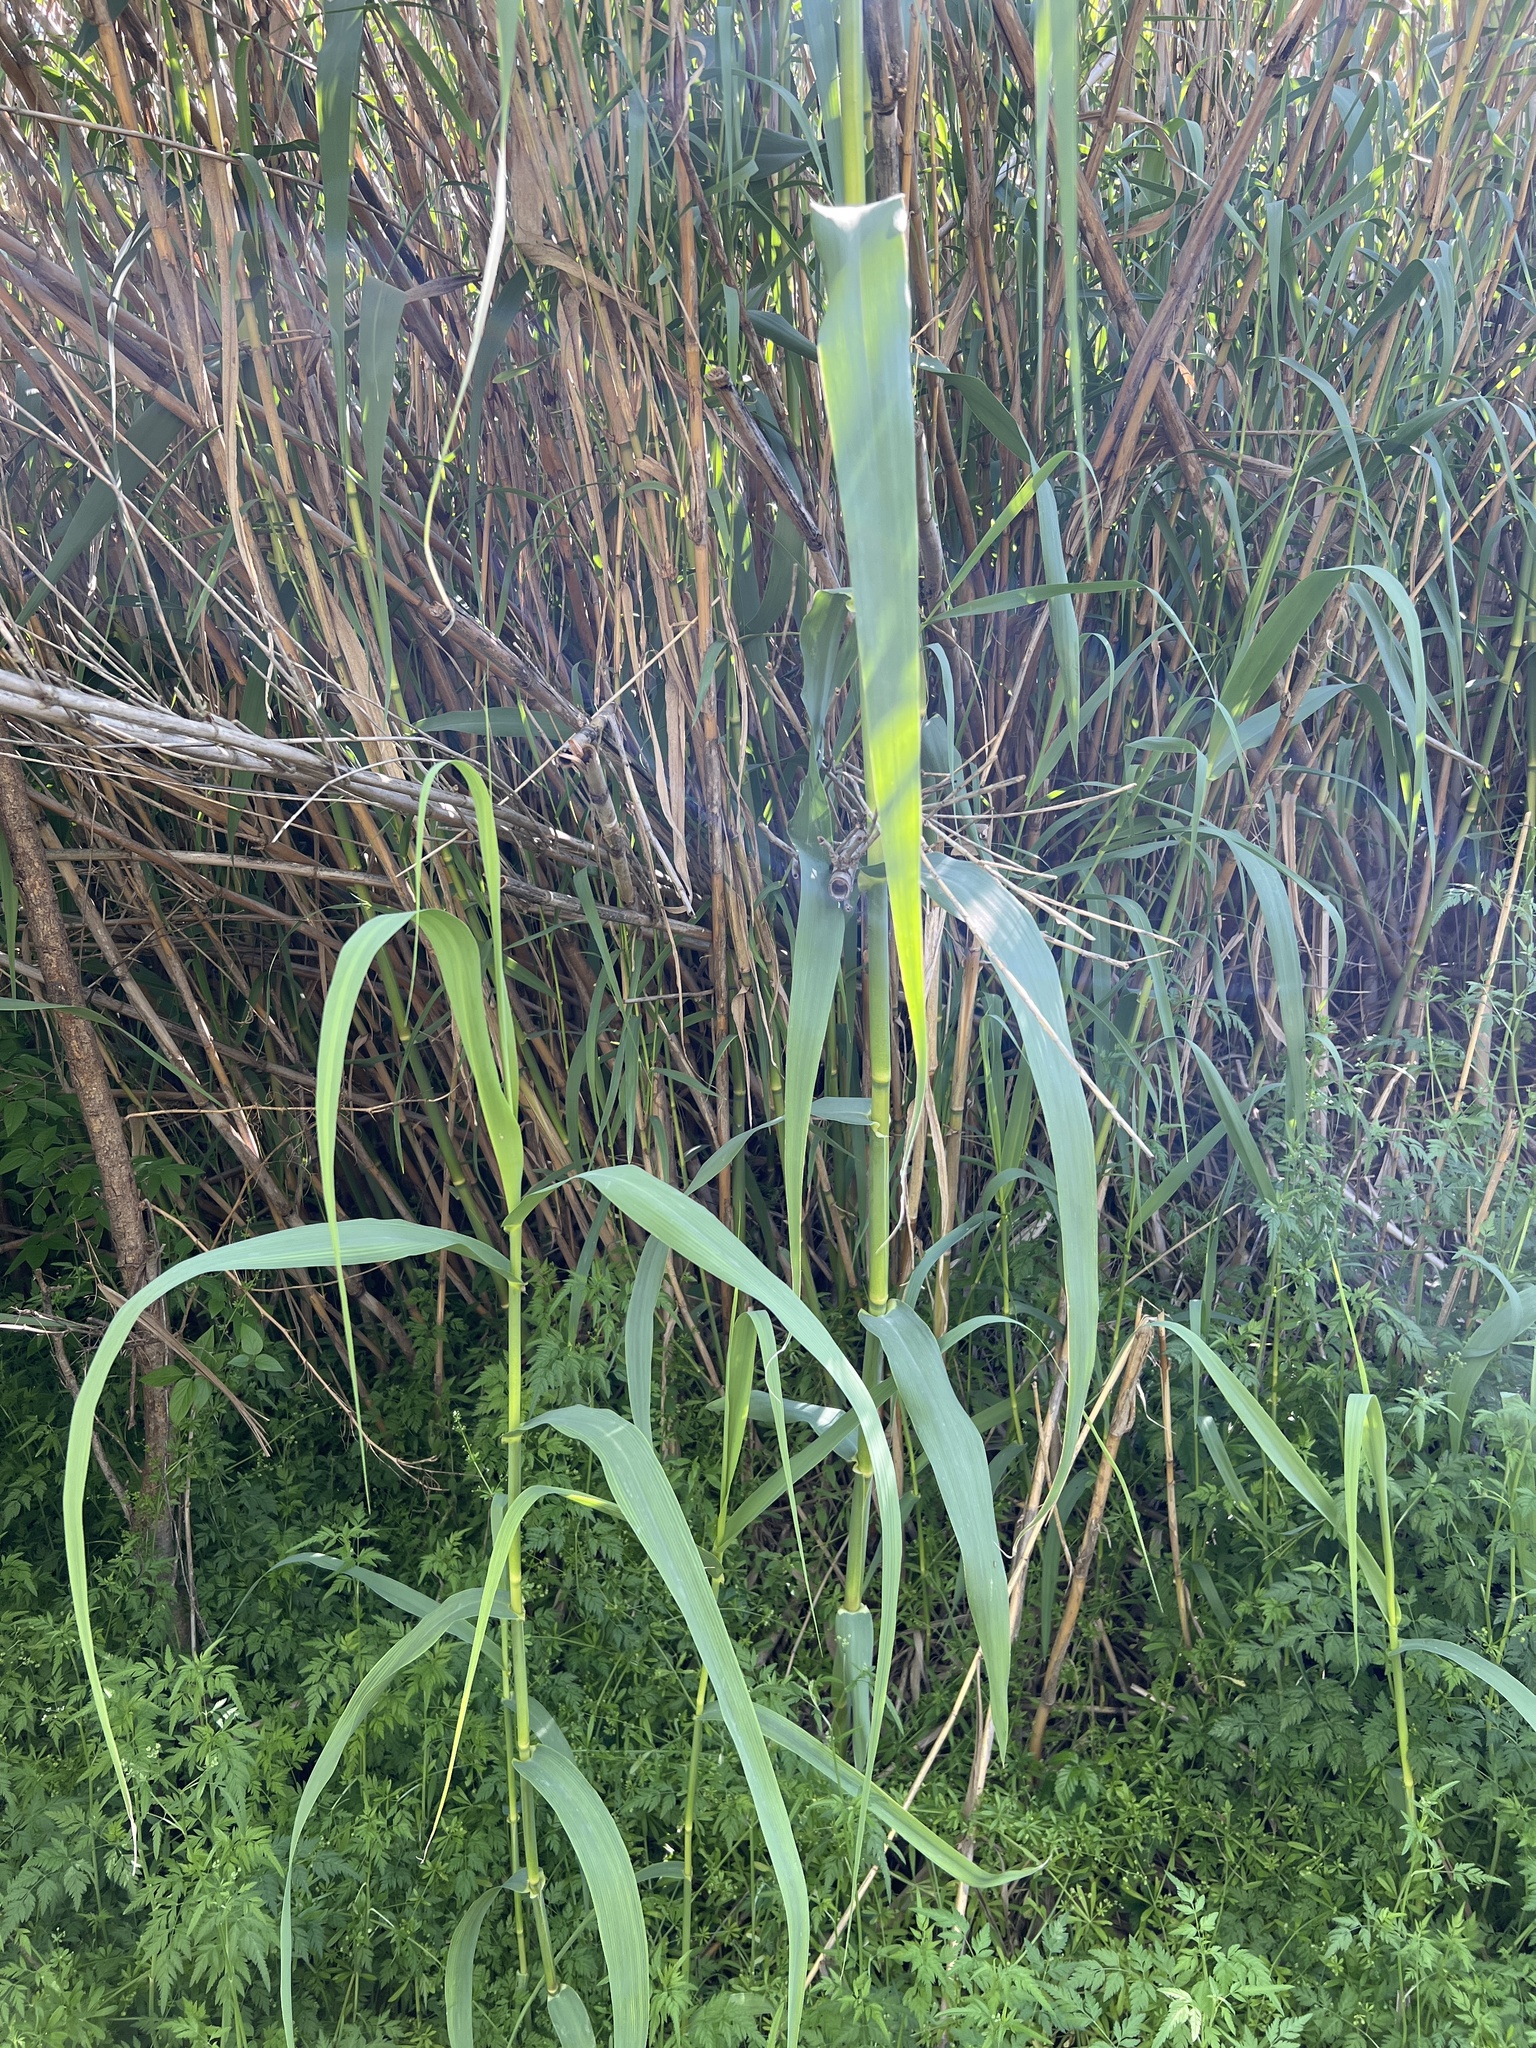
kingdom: Plantae
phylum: Tracheophyta
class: Liliopsida
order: Poales
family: Poaceae
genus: Arundo
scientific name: Arundo donax
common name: Giant reed
